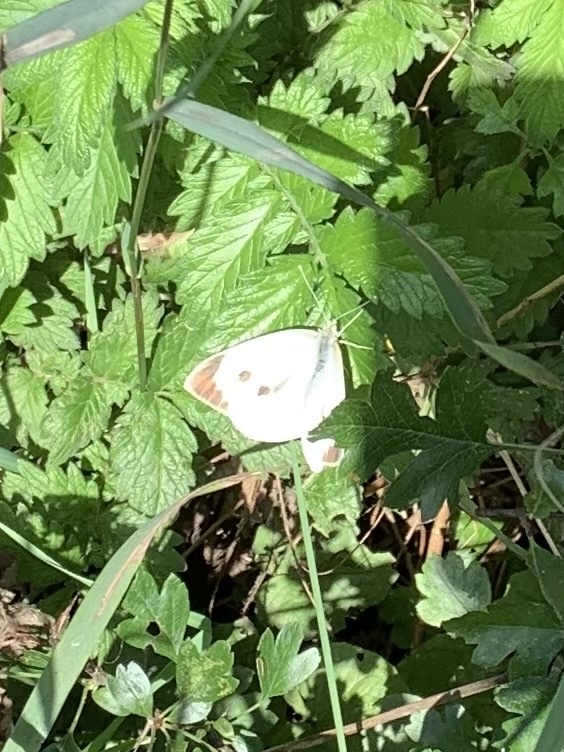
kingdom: Animalia
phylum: Arthropoda
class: Insecta
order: Lepidoptera
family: Pieridae
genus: Pieris
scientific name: Pieris brassicae
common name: Large white
